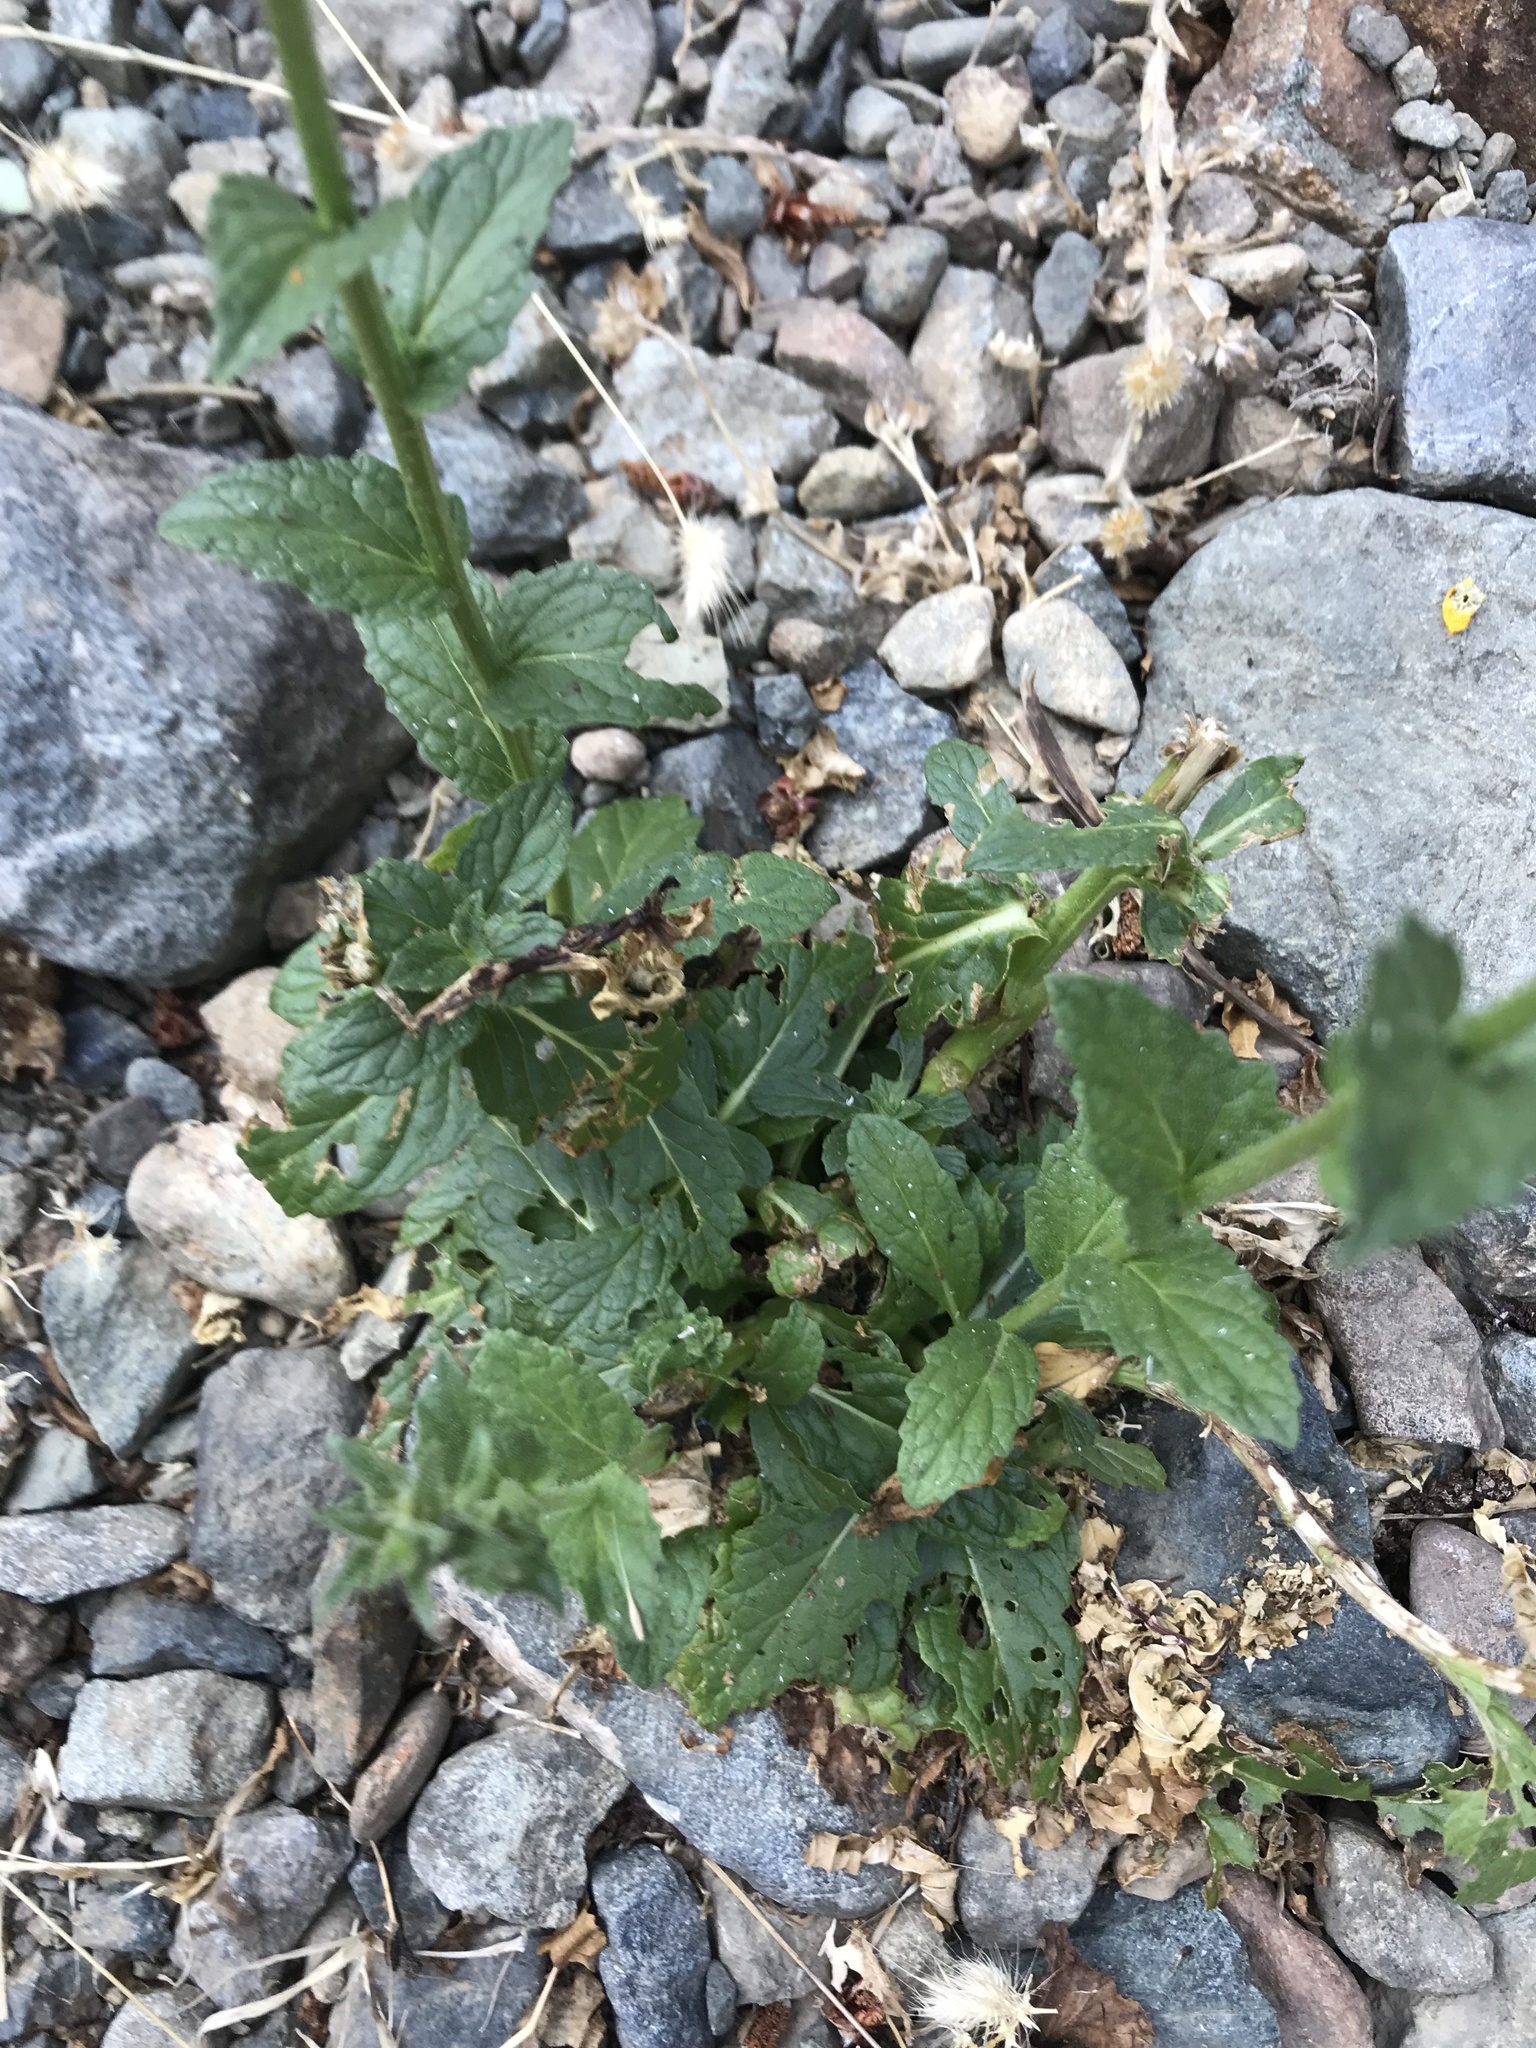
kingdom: Plantae
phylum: Tracheophyta
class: Magnoliopsida
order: Lamiales
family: Scrophulariaceae
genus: Verbascum
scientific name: Verbascum blattaria
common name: Moth mullein
